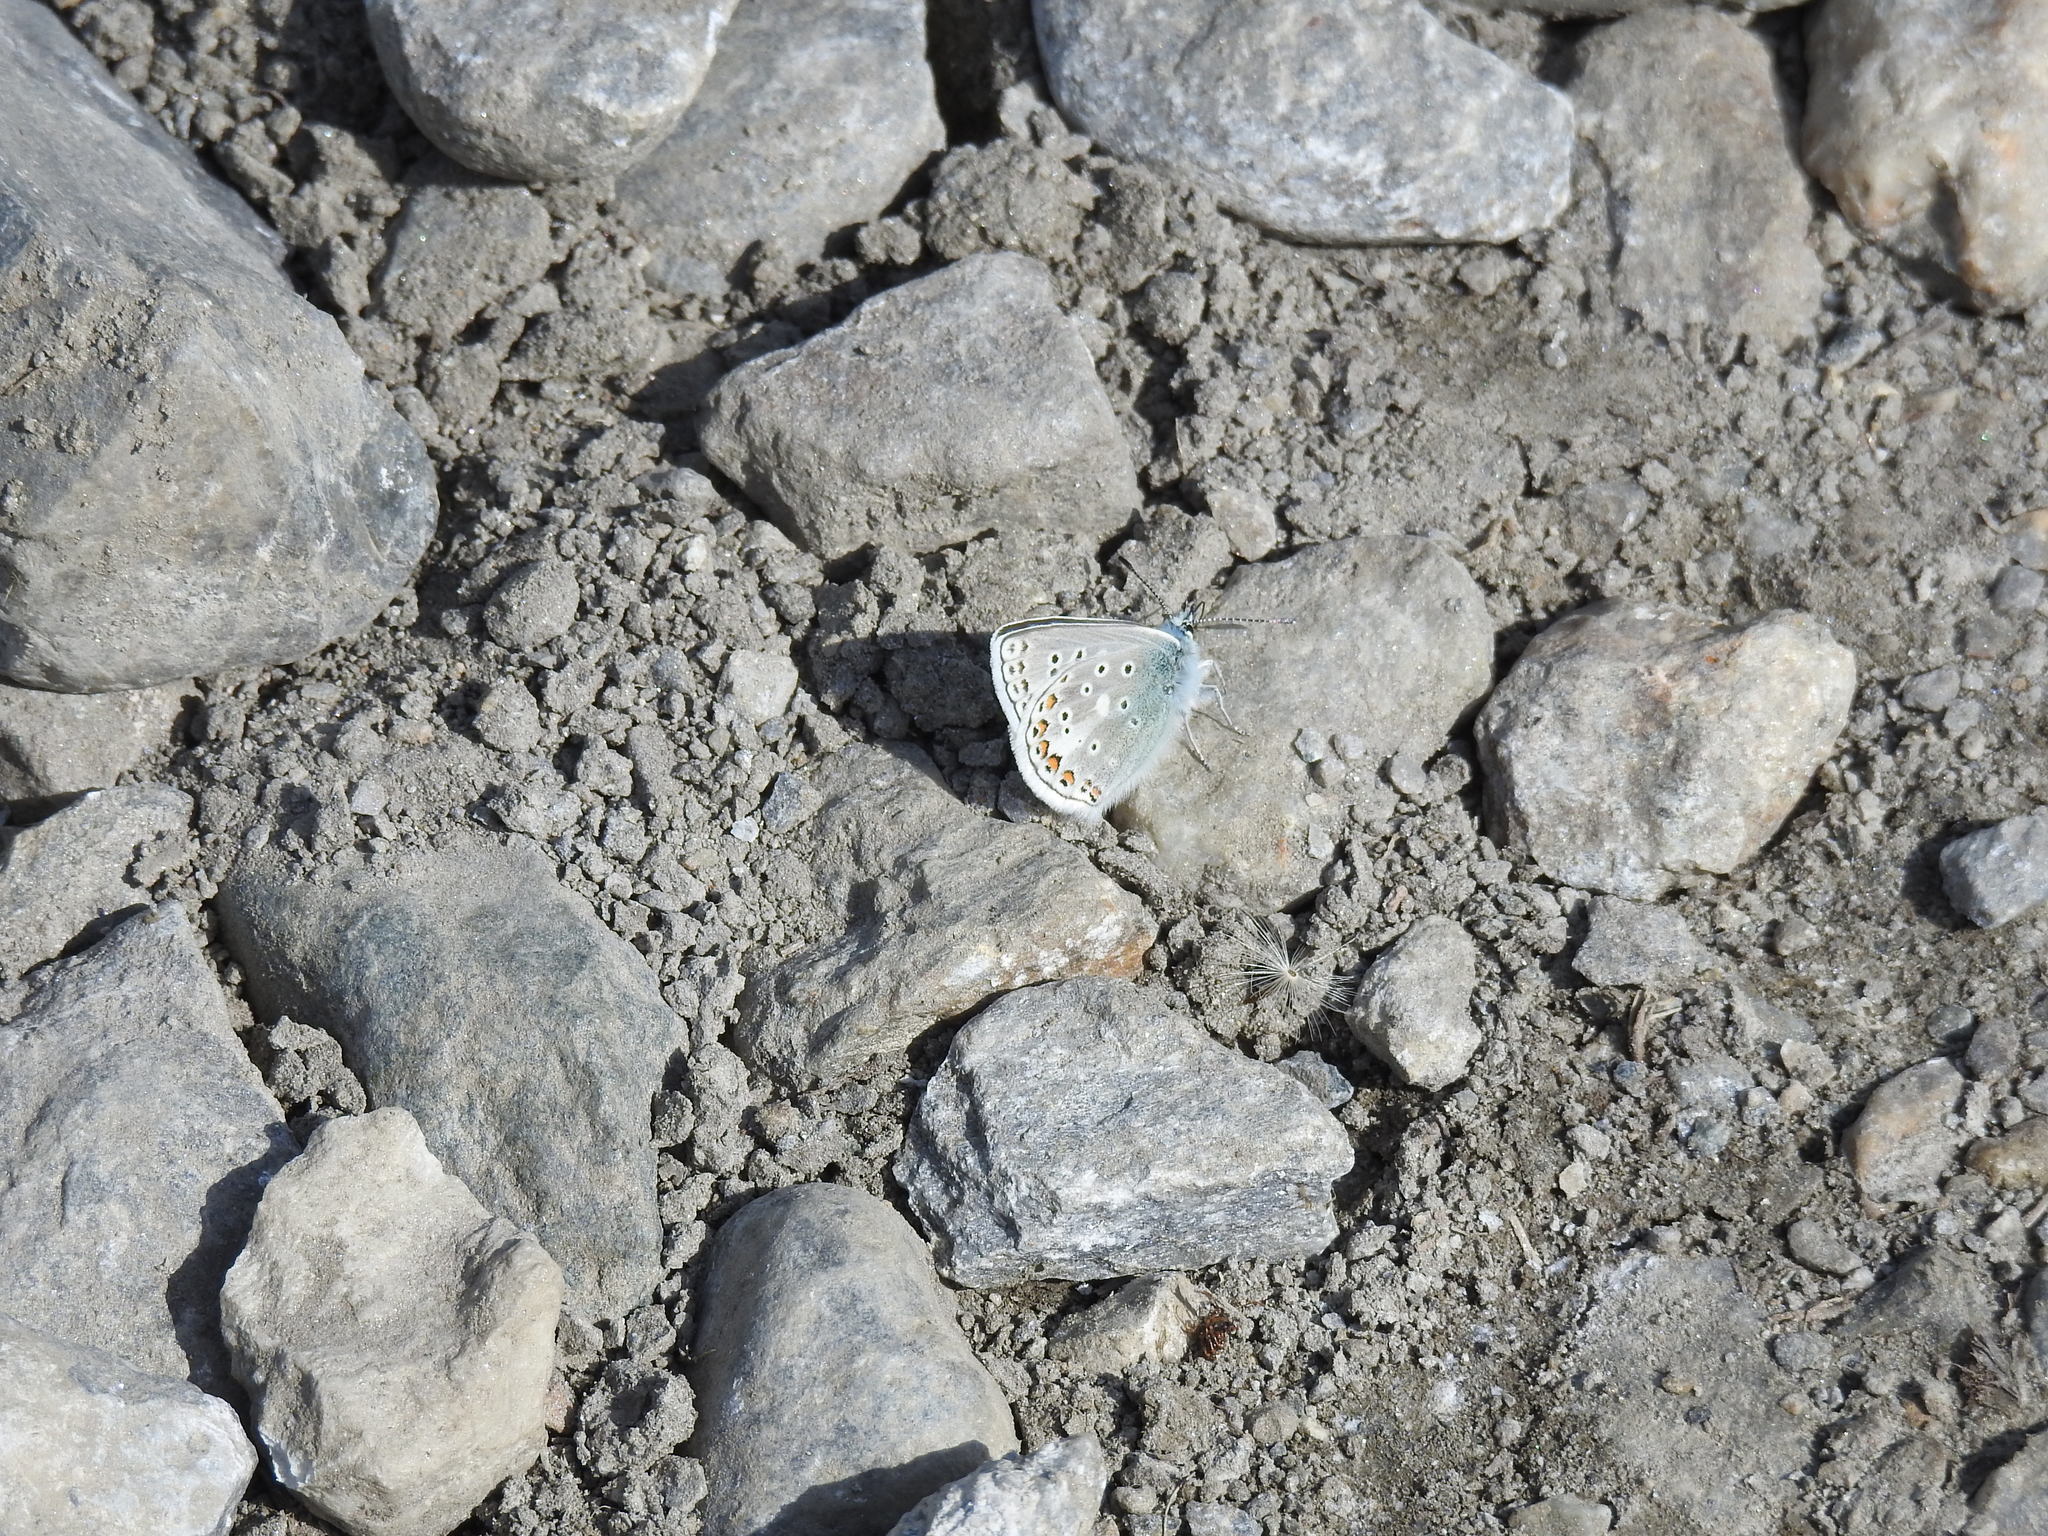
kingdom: Animalia
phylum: Arthropoda
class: Insecta
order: Lepidoptera
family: Lycaenidae
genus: Polyommatus
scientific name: Polyommatus eros
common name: Eros blue
